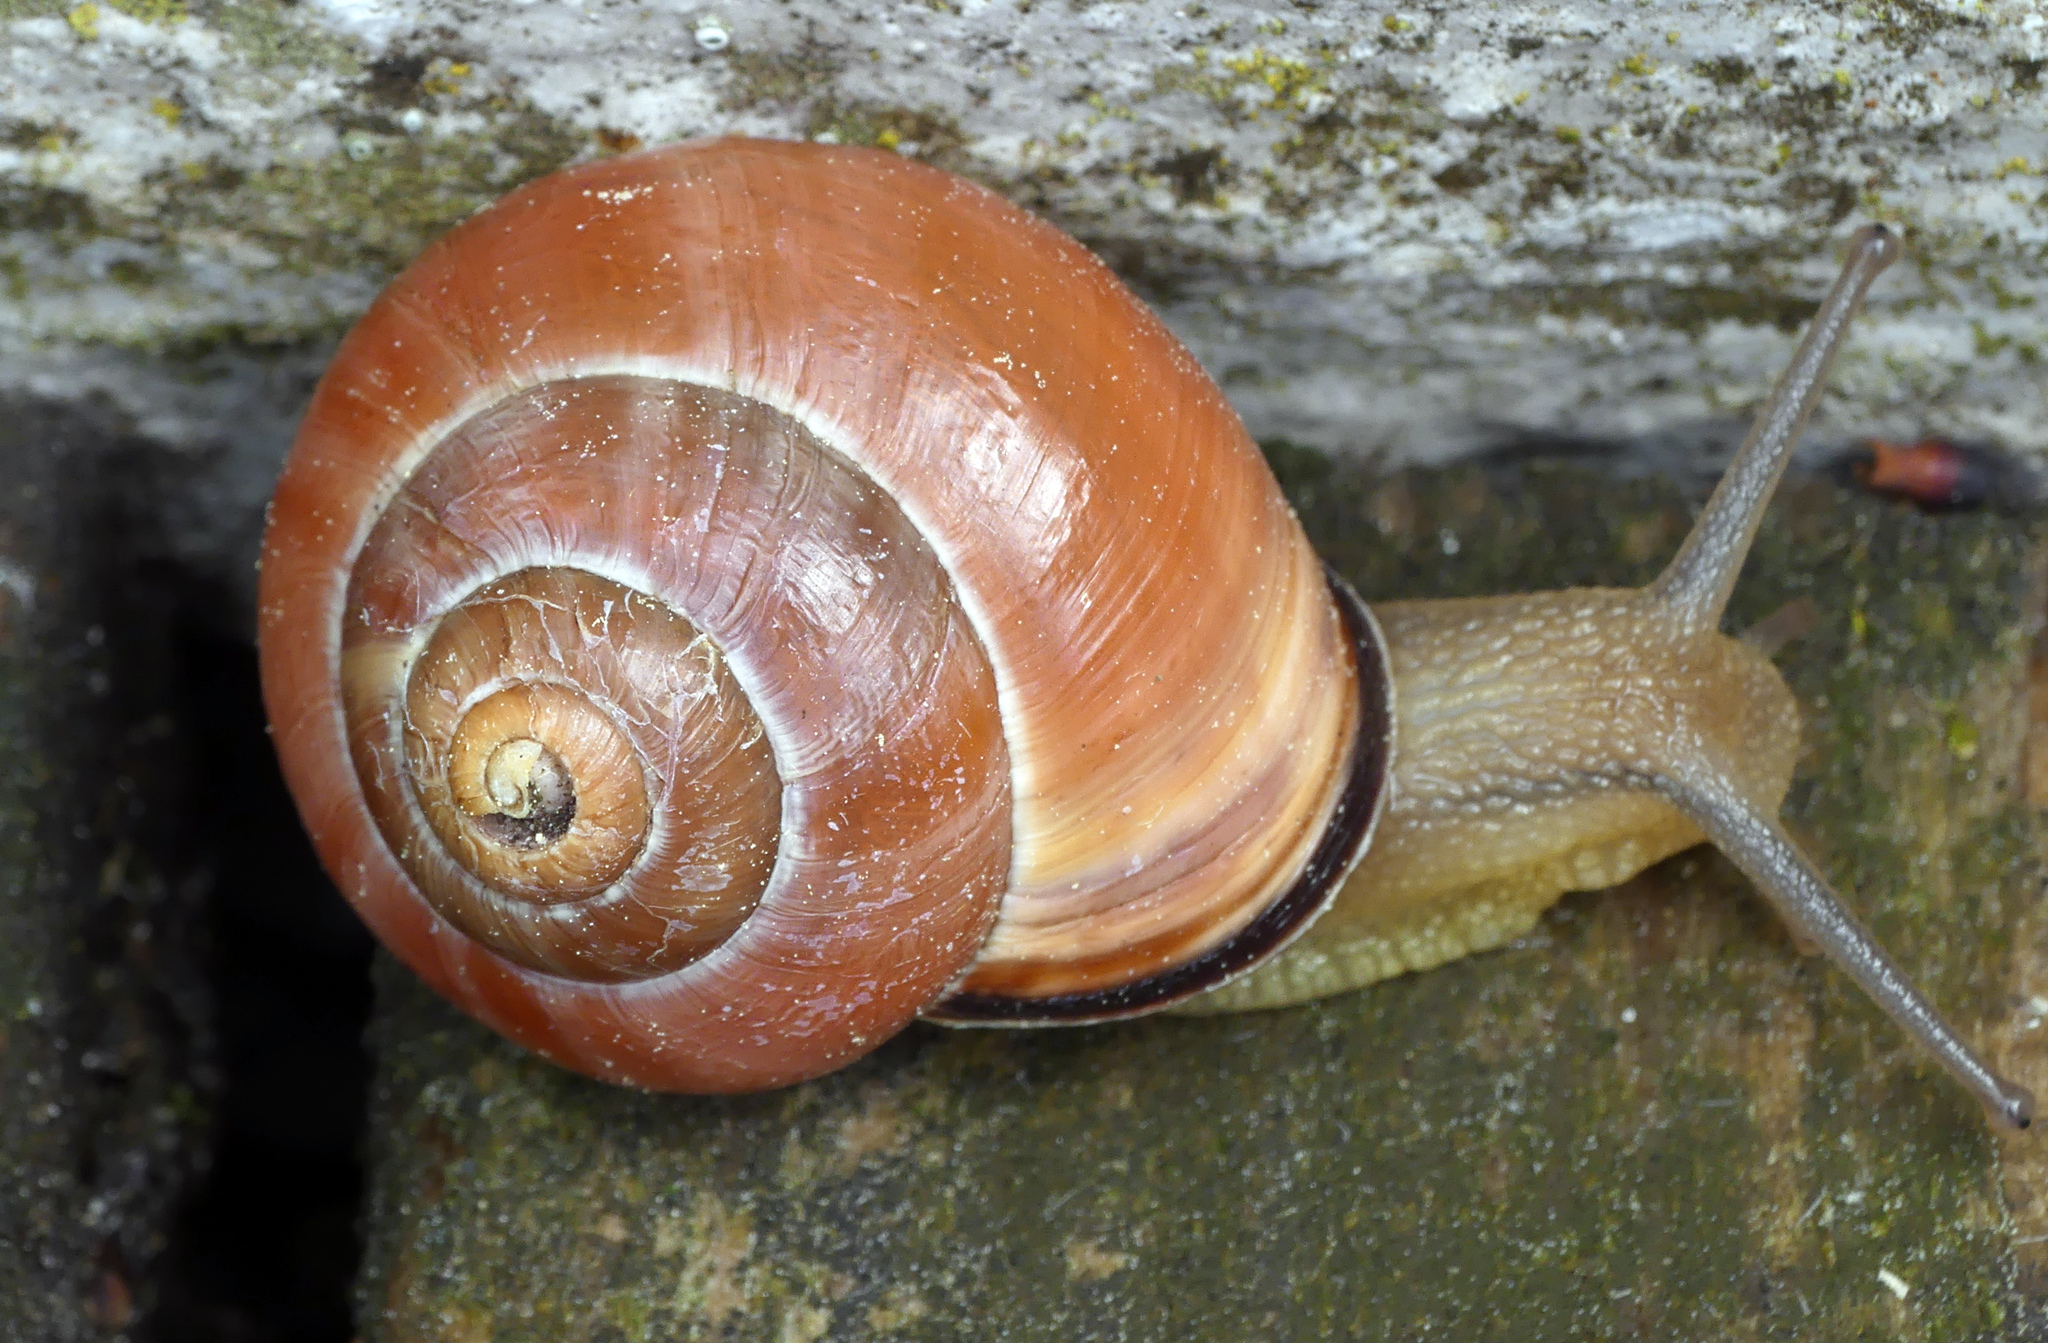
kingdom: Animalia
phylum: Mollusca
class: Gastropoda
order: Stylommatophora
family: Helicidae
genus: Cepaea
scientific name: Cepaea nemoralis
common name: Grovesnail
